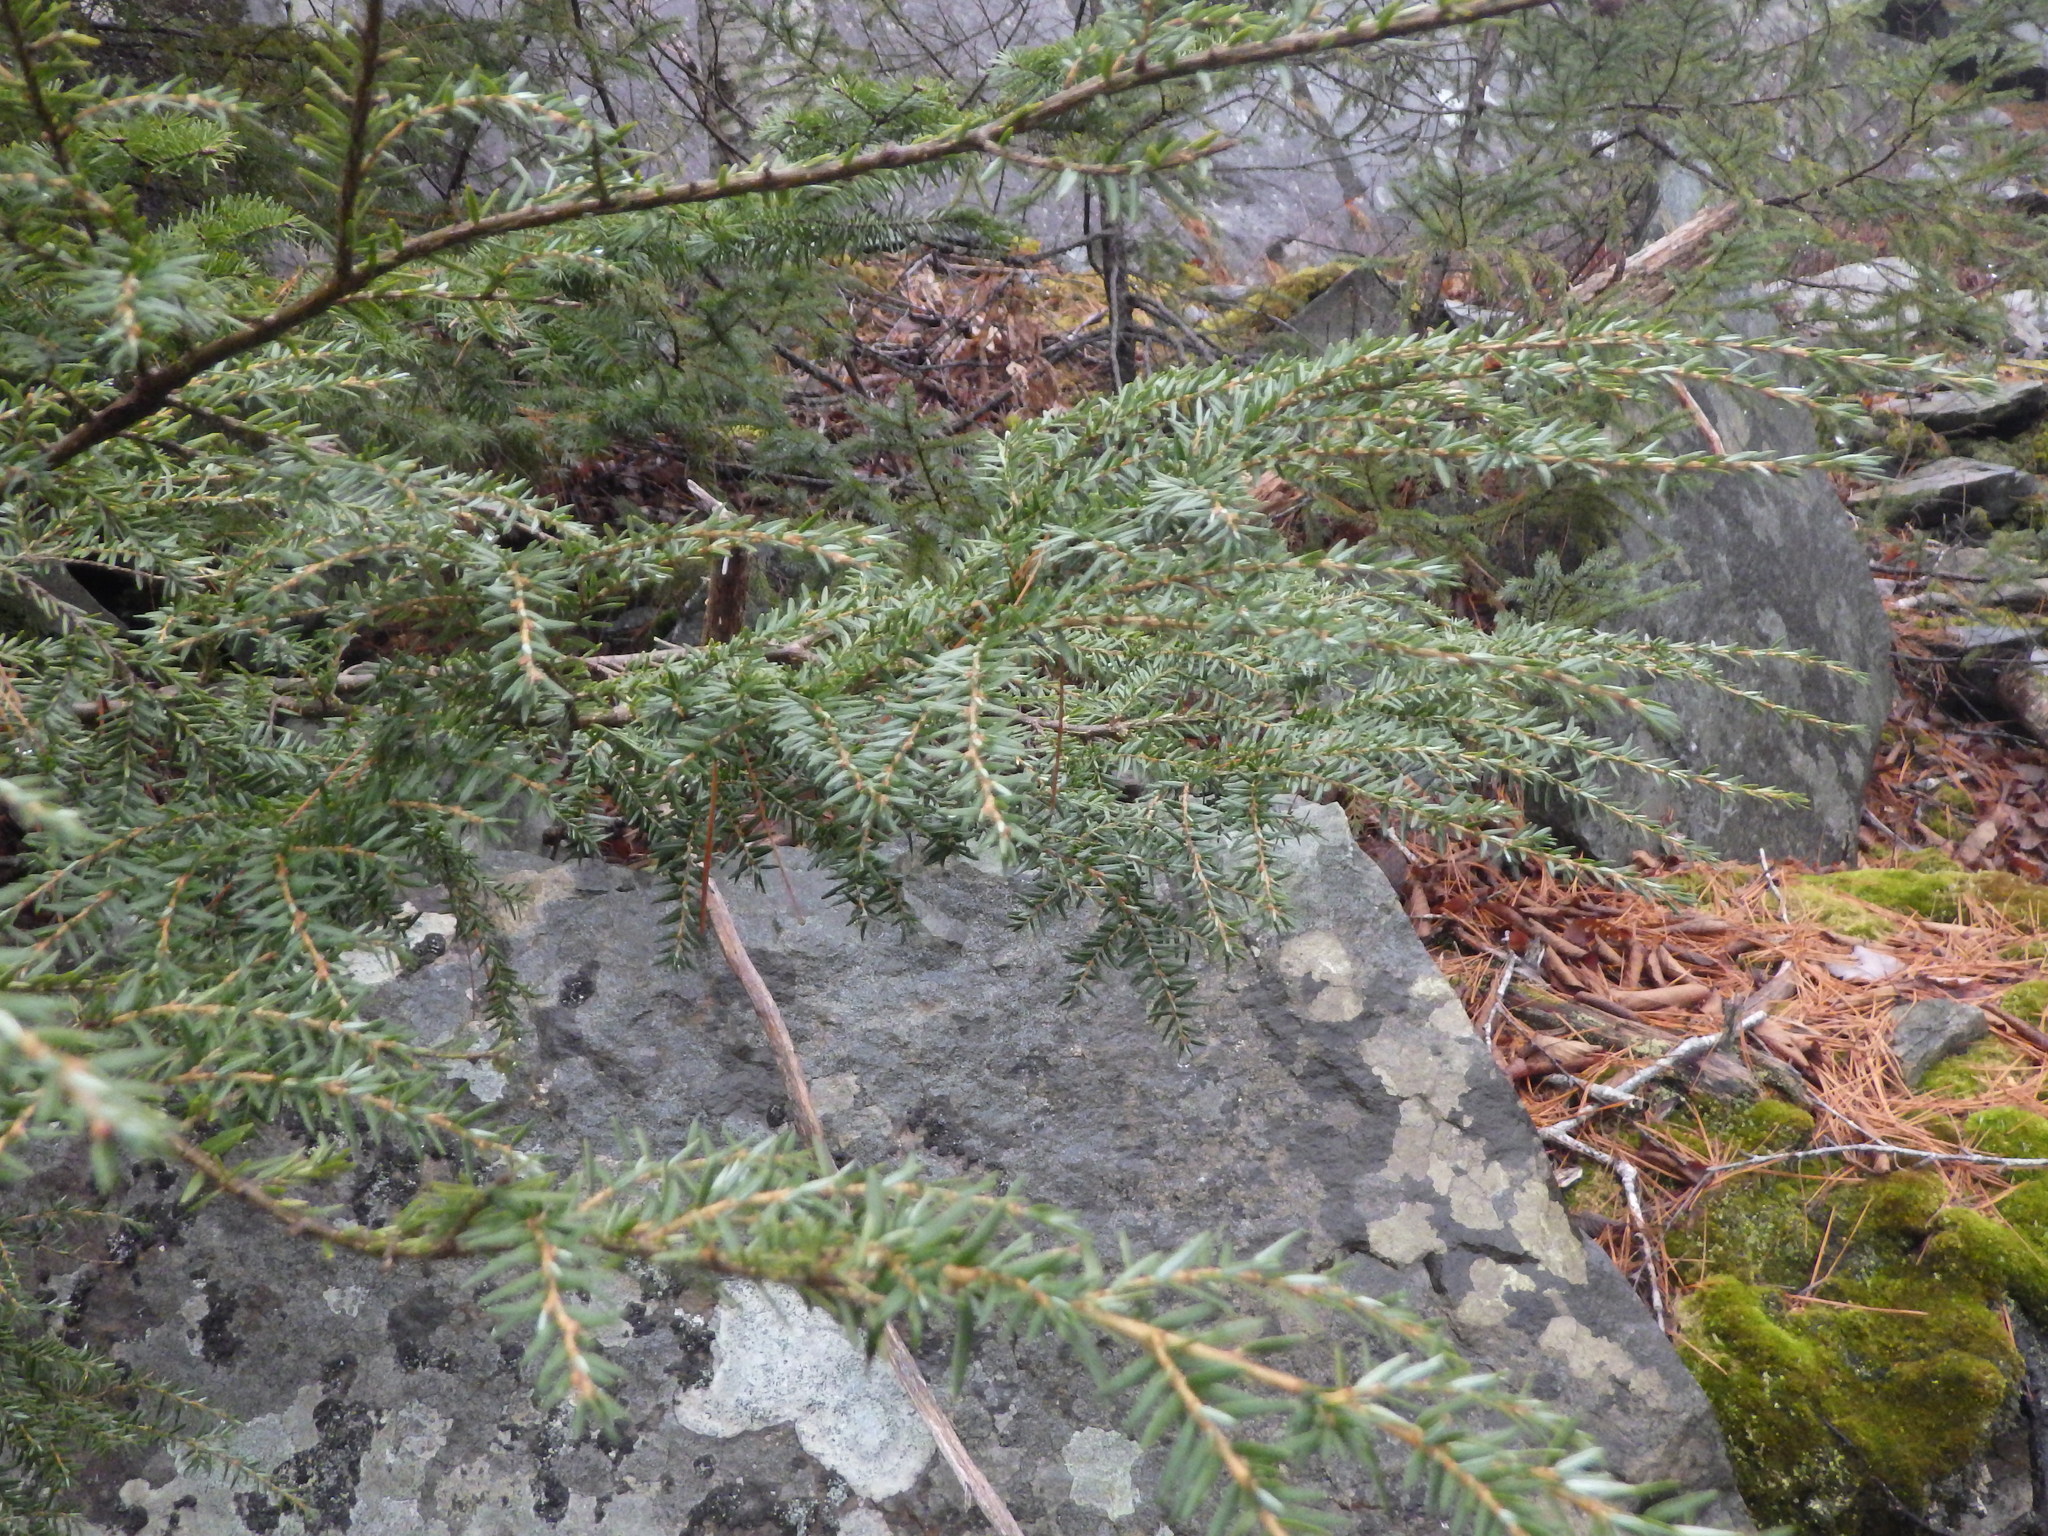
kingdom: Plantae
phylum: Tracheophyta
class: Pinopsida
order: Pinales
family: Pinaceae
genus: Tsuga
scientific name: Tsuga canadensis
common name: Eastern hemlock
